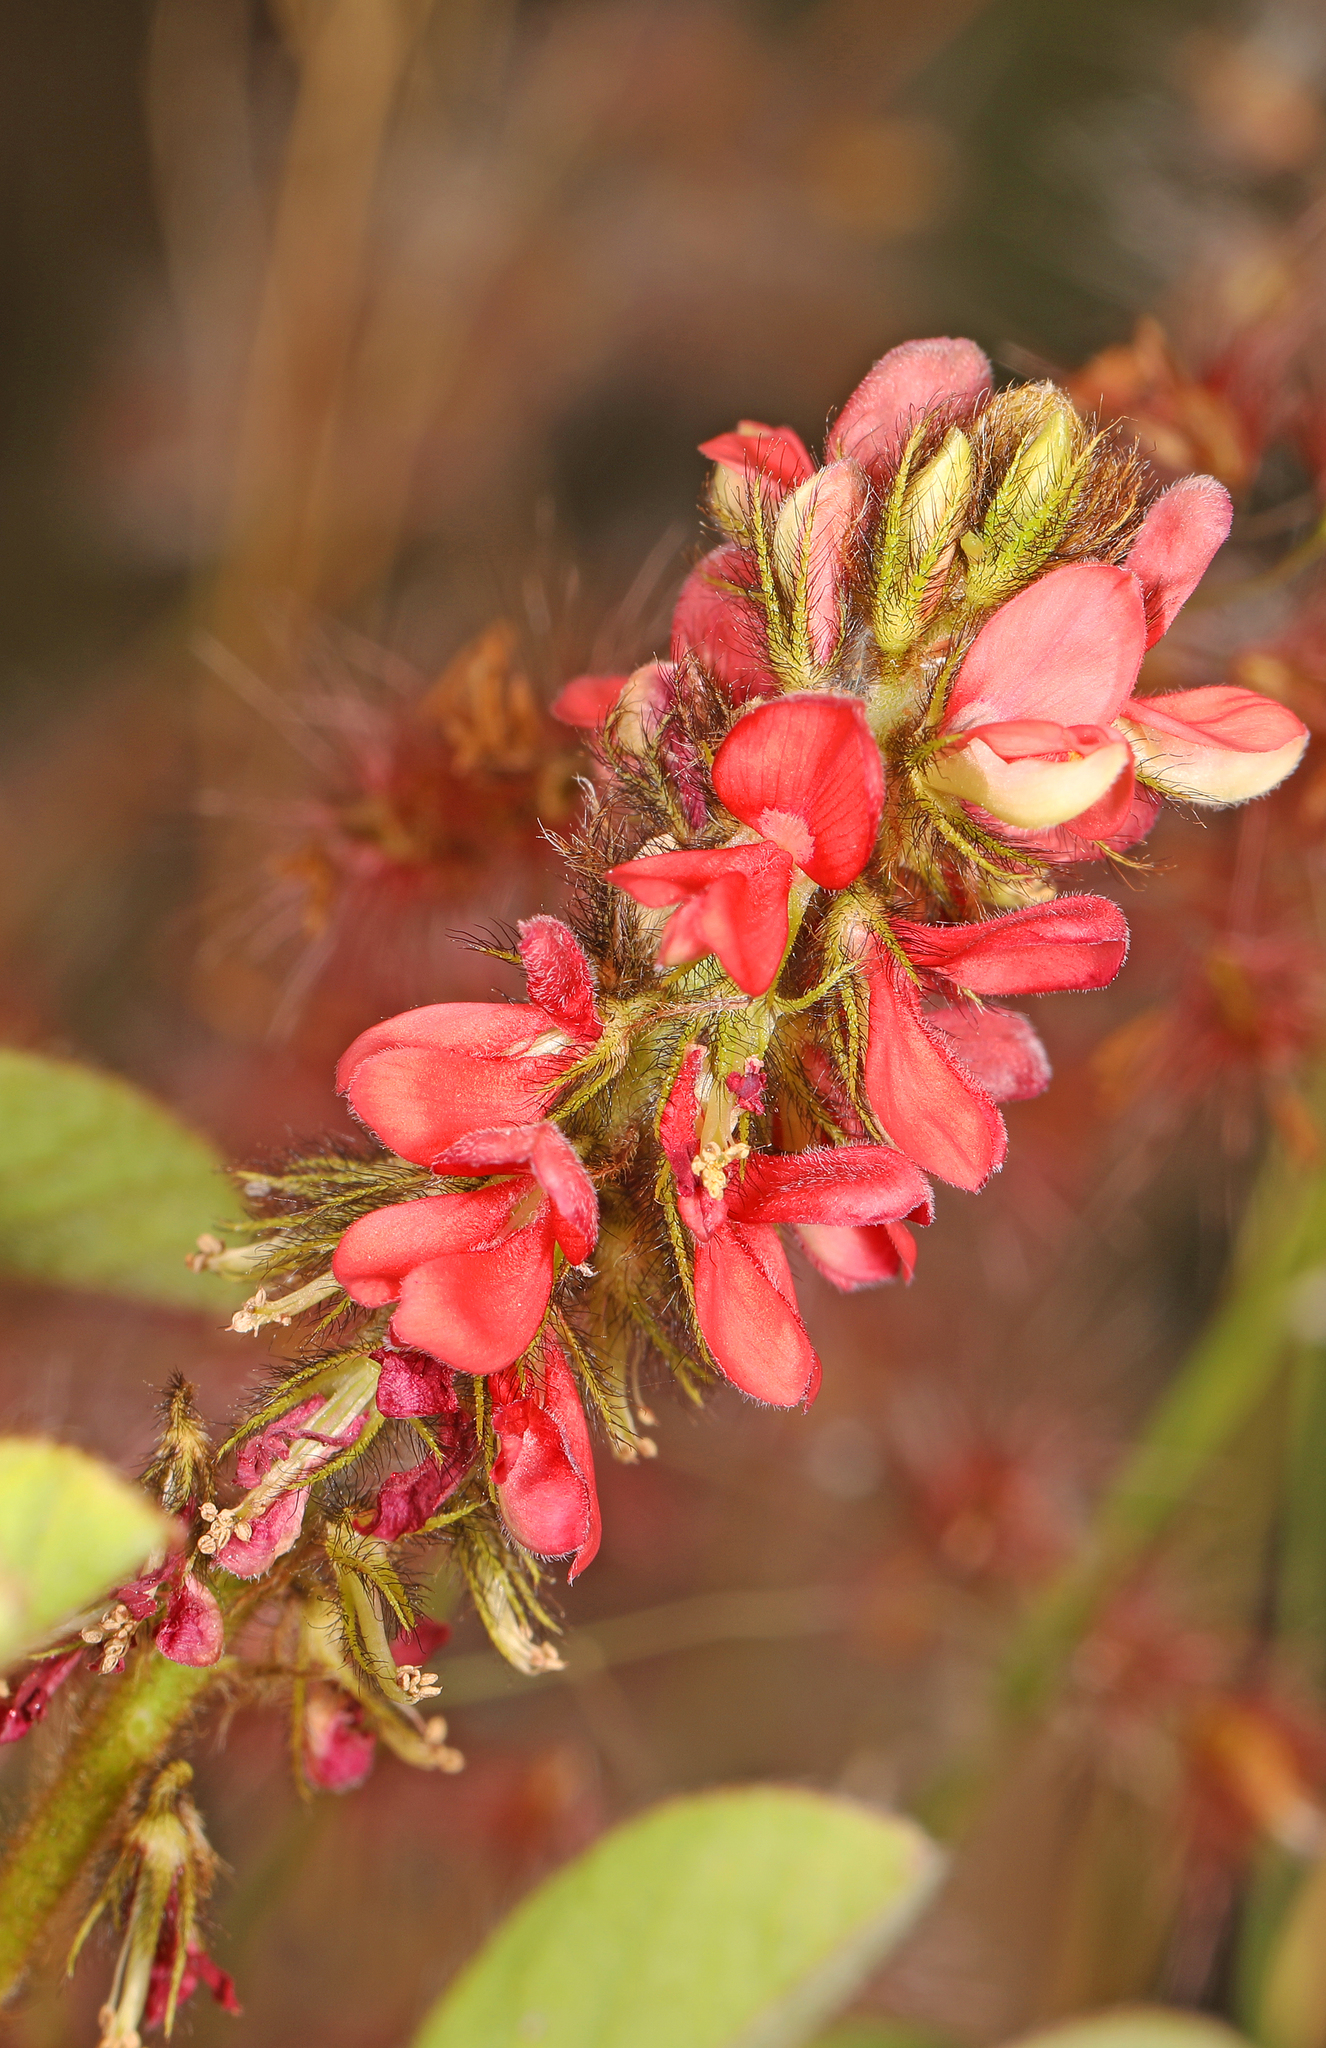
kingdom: Plantae
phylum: Tracheophyta
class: Magnoliopsida
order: Fabales
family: Fabaceae
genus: Indigofera
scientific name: Indigofera hirsuta
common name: Hairy indigo
